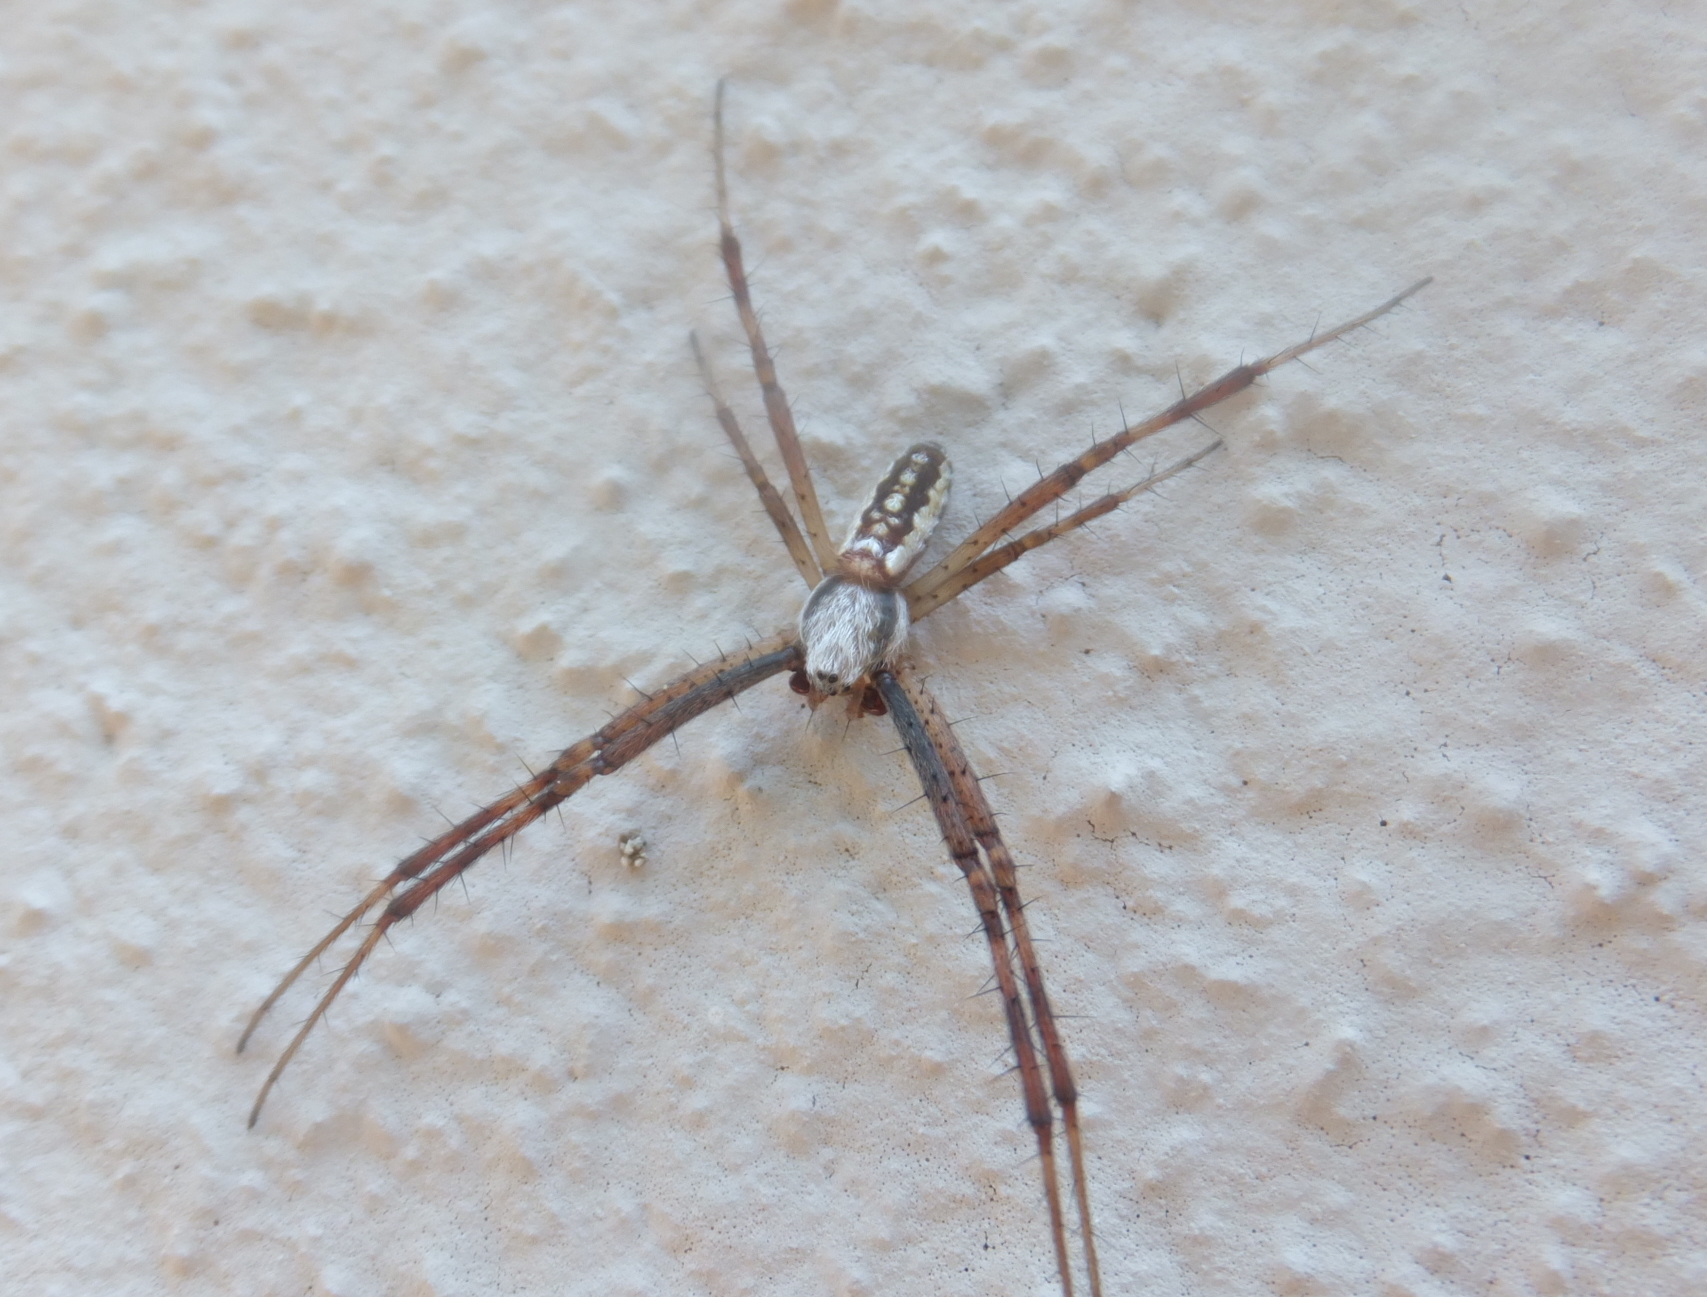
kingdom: Animalia
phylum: Arthropoda
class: Arachnida
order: Araneae
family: Araneidae
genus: Argiope
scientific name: Argiope bruennichi
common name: Wasp spider
